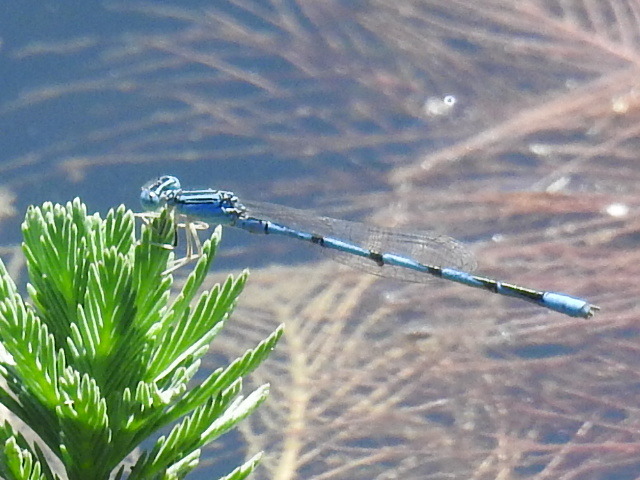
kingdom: Animalia
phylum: Arthropoda
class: Insecta
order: Odonata
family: Coenagrionidae
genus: Enallagma
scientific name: Enallagma basidens
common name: Double-striped bluet
